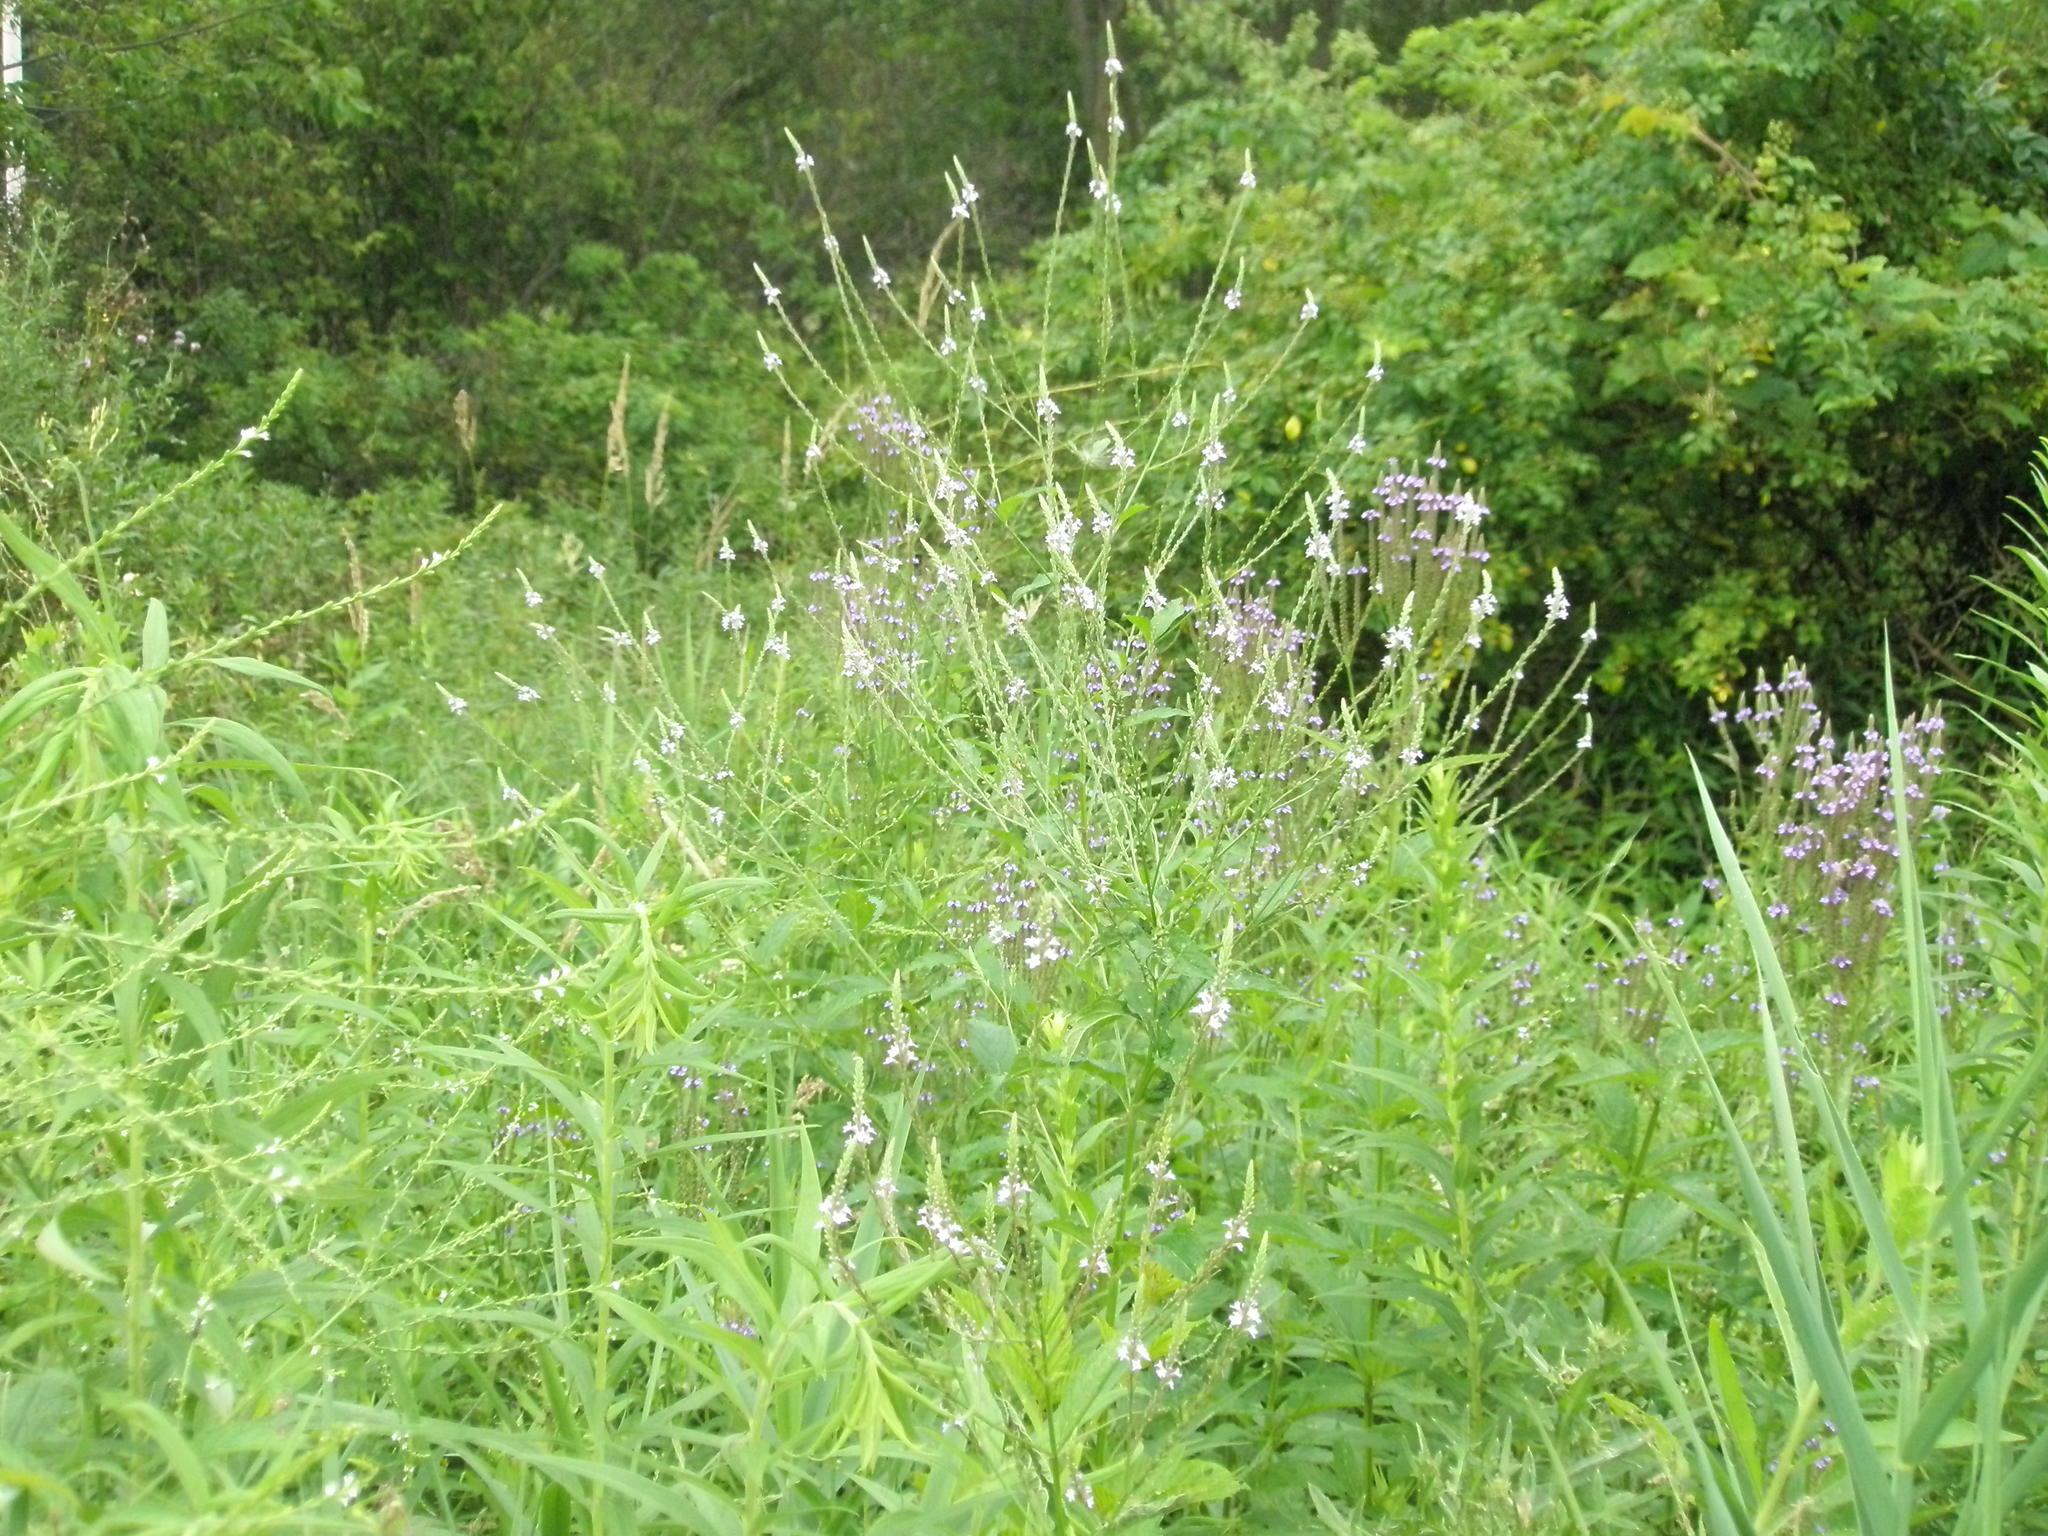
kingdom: Plantae
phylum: Tracheophyta
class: Magnoliopsida
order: Lamiales
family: Verbenaceae
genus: Verbena
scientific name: Verbena engelmannii
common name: Engelmann's vervain
